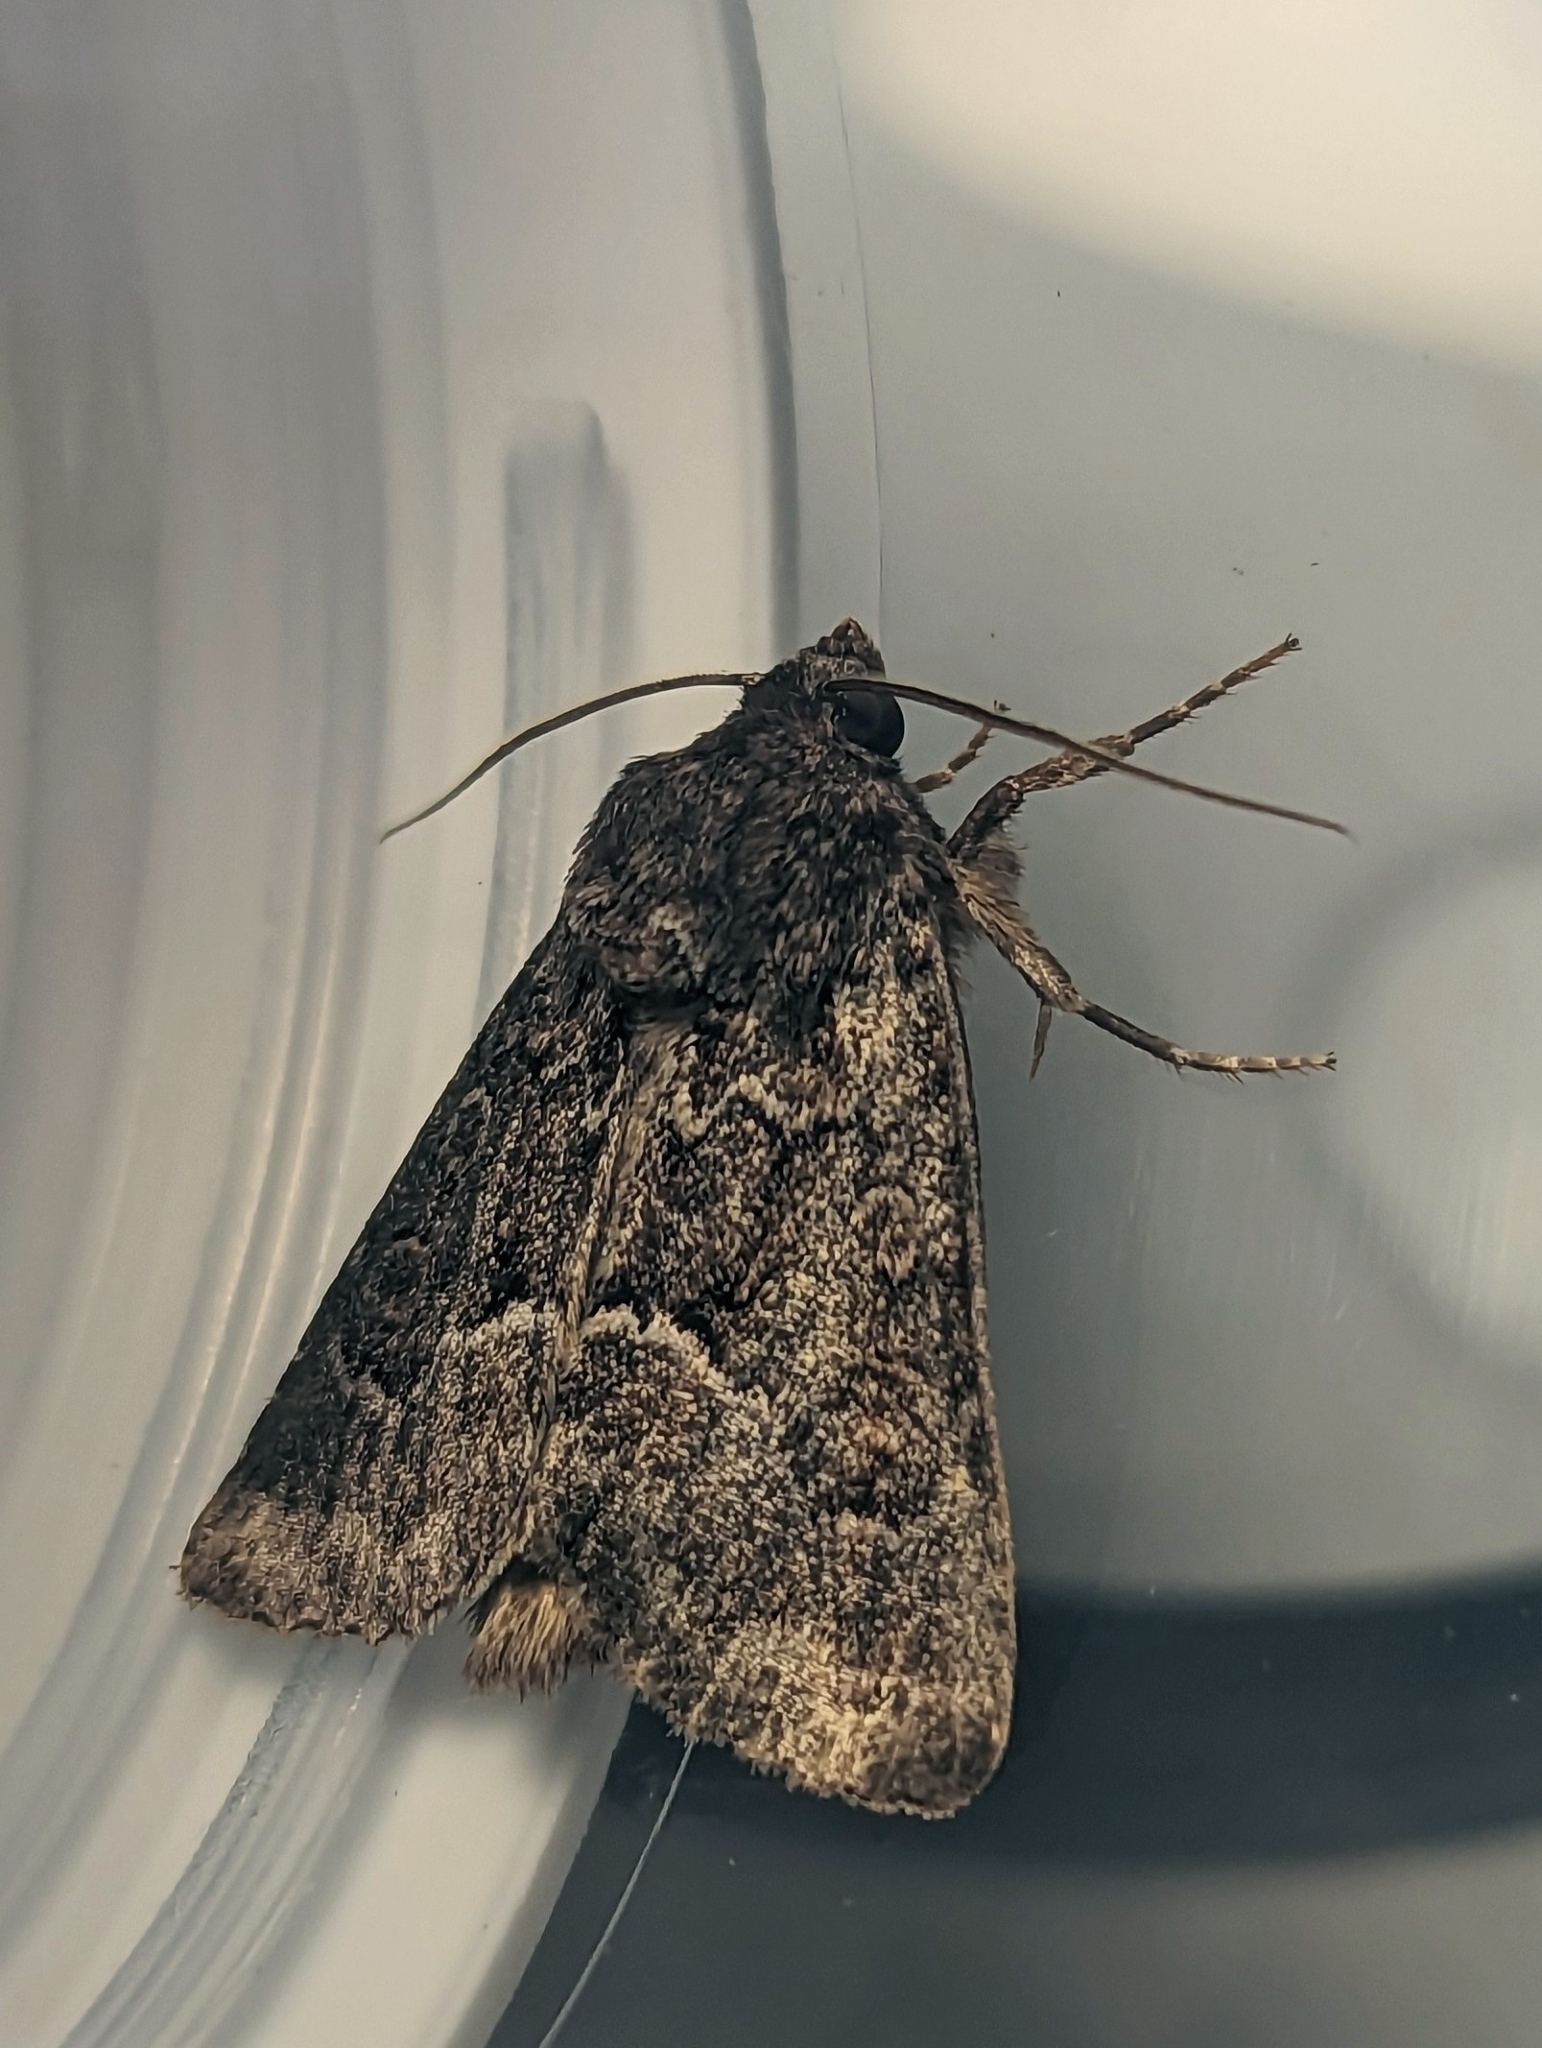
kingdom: Animalia
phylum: Arthropoda
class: Insecta
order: Lepidoptera
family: Noctuidae
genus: Thalpophila
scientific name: Thalpophila matura
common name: Straw underwing
